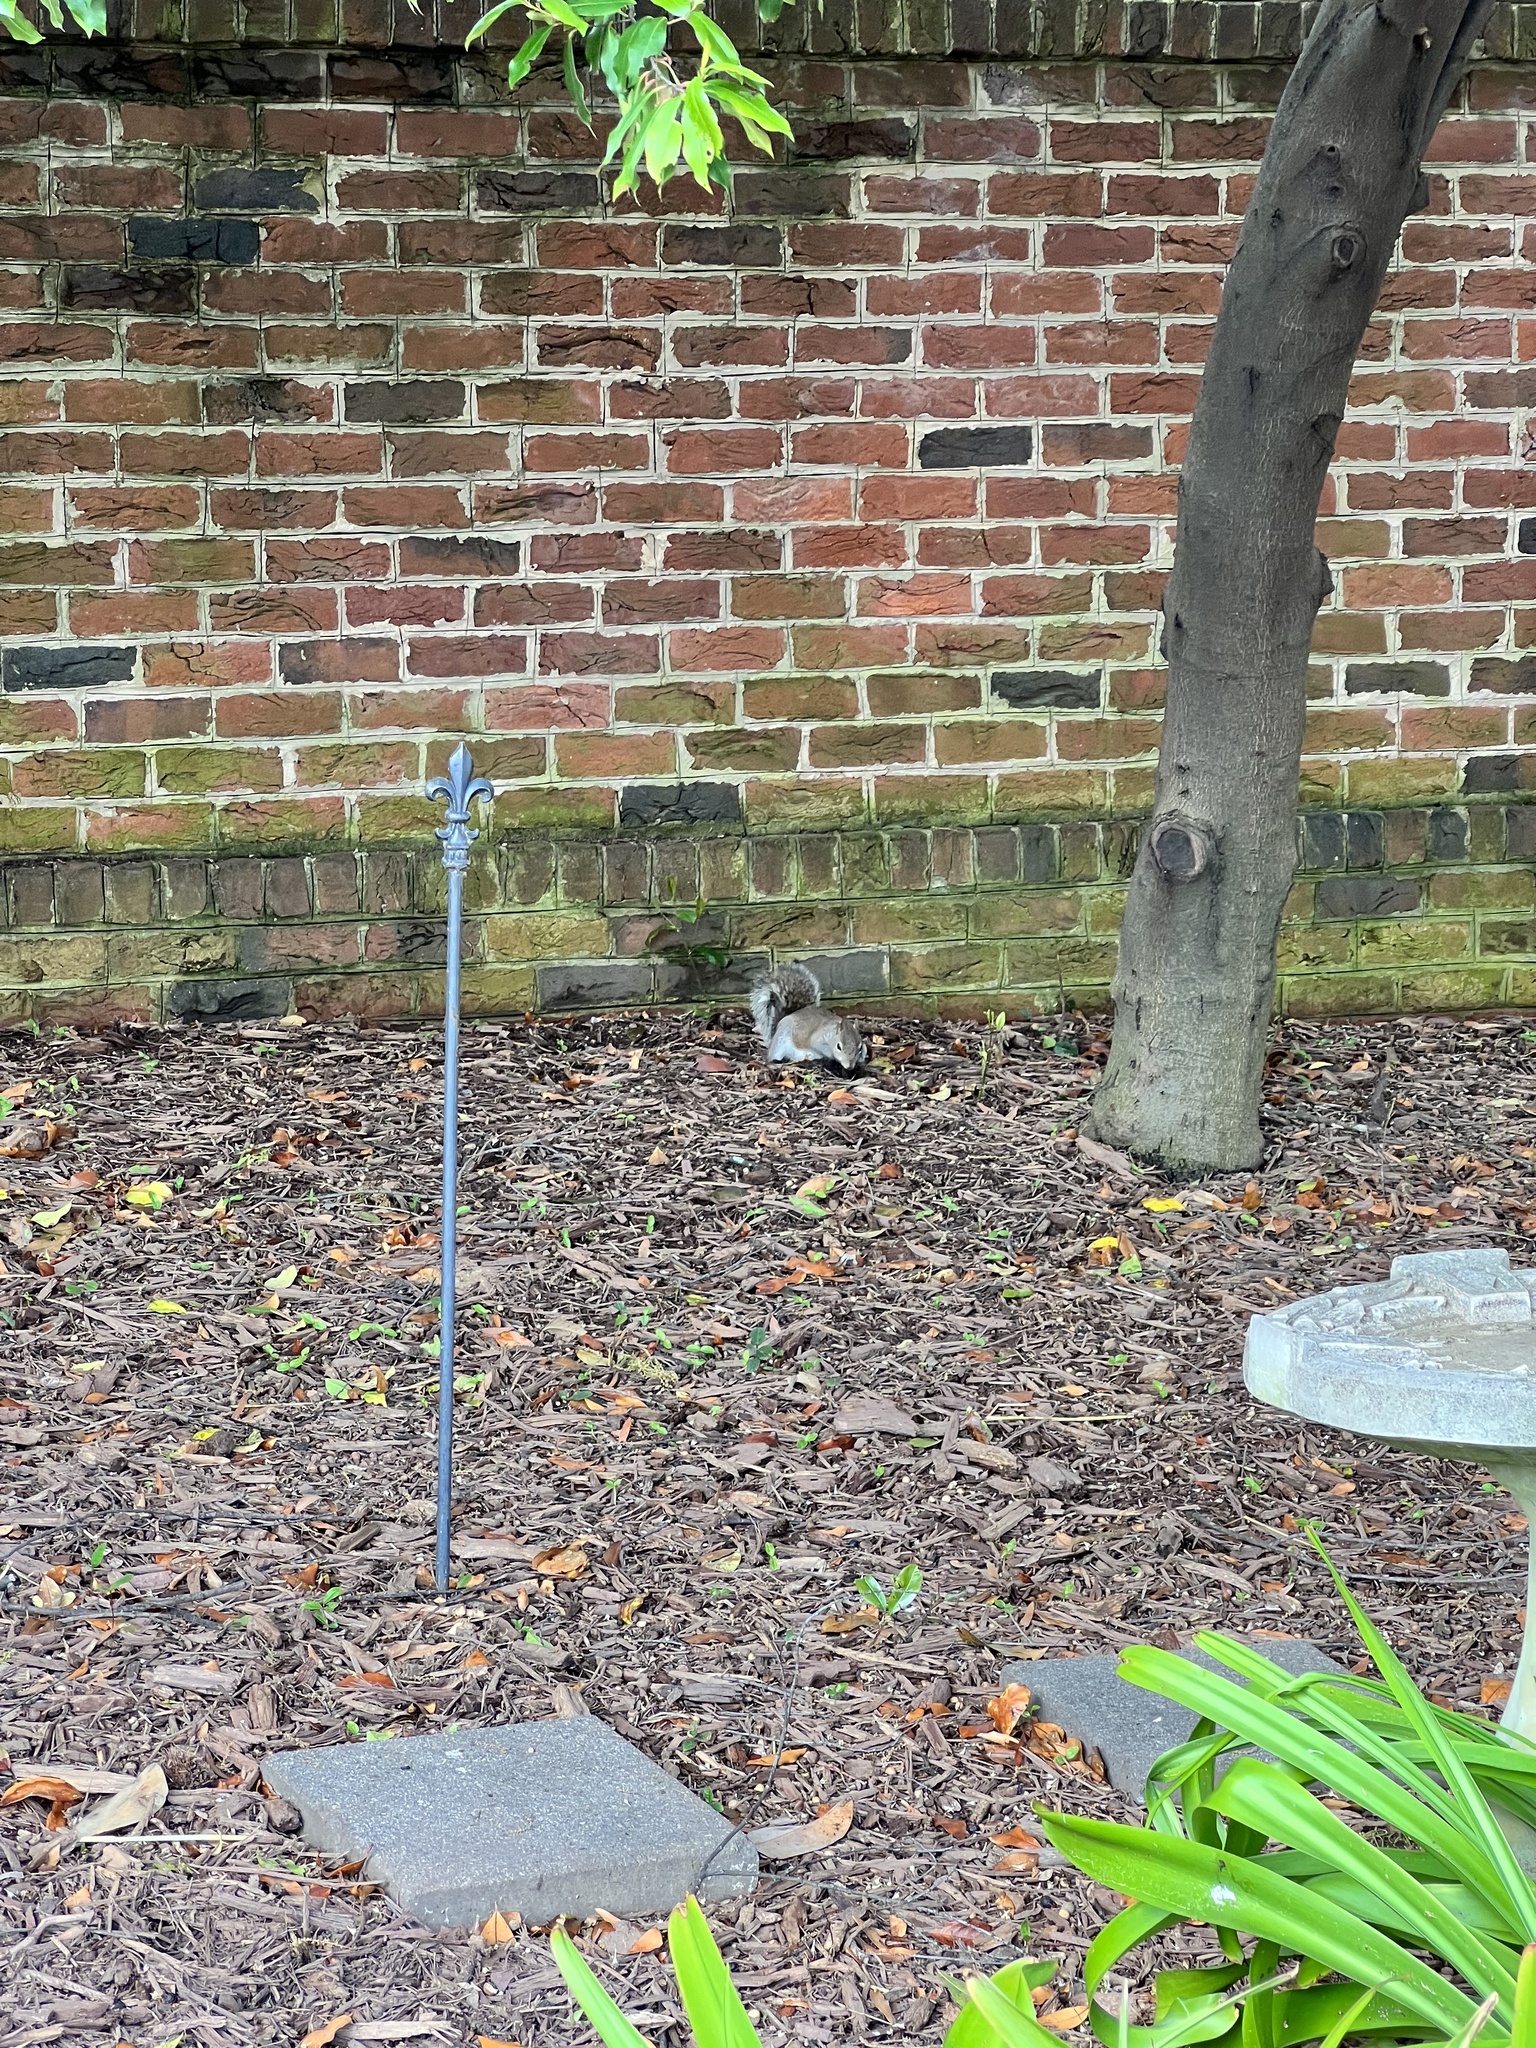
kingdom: Animalia
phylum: Chordata
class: Mammalia
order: Rodentia
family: Sciuridae
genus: Sciurus
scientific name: Sciurus carolinensis
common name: Eastern gray squirrel
